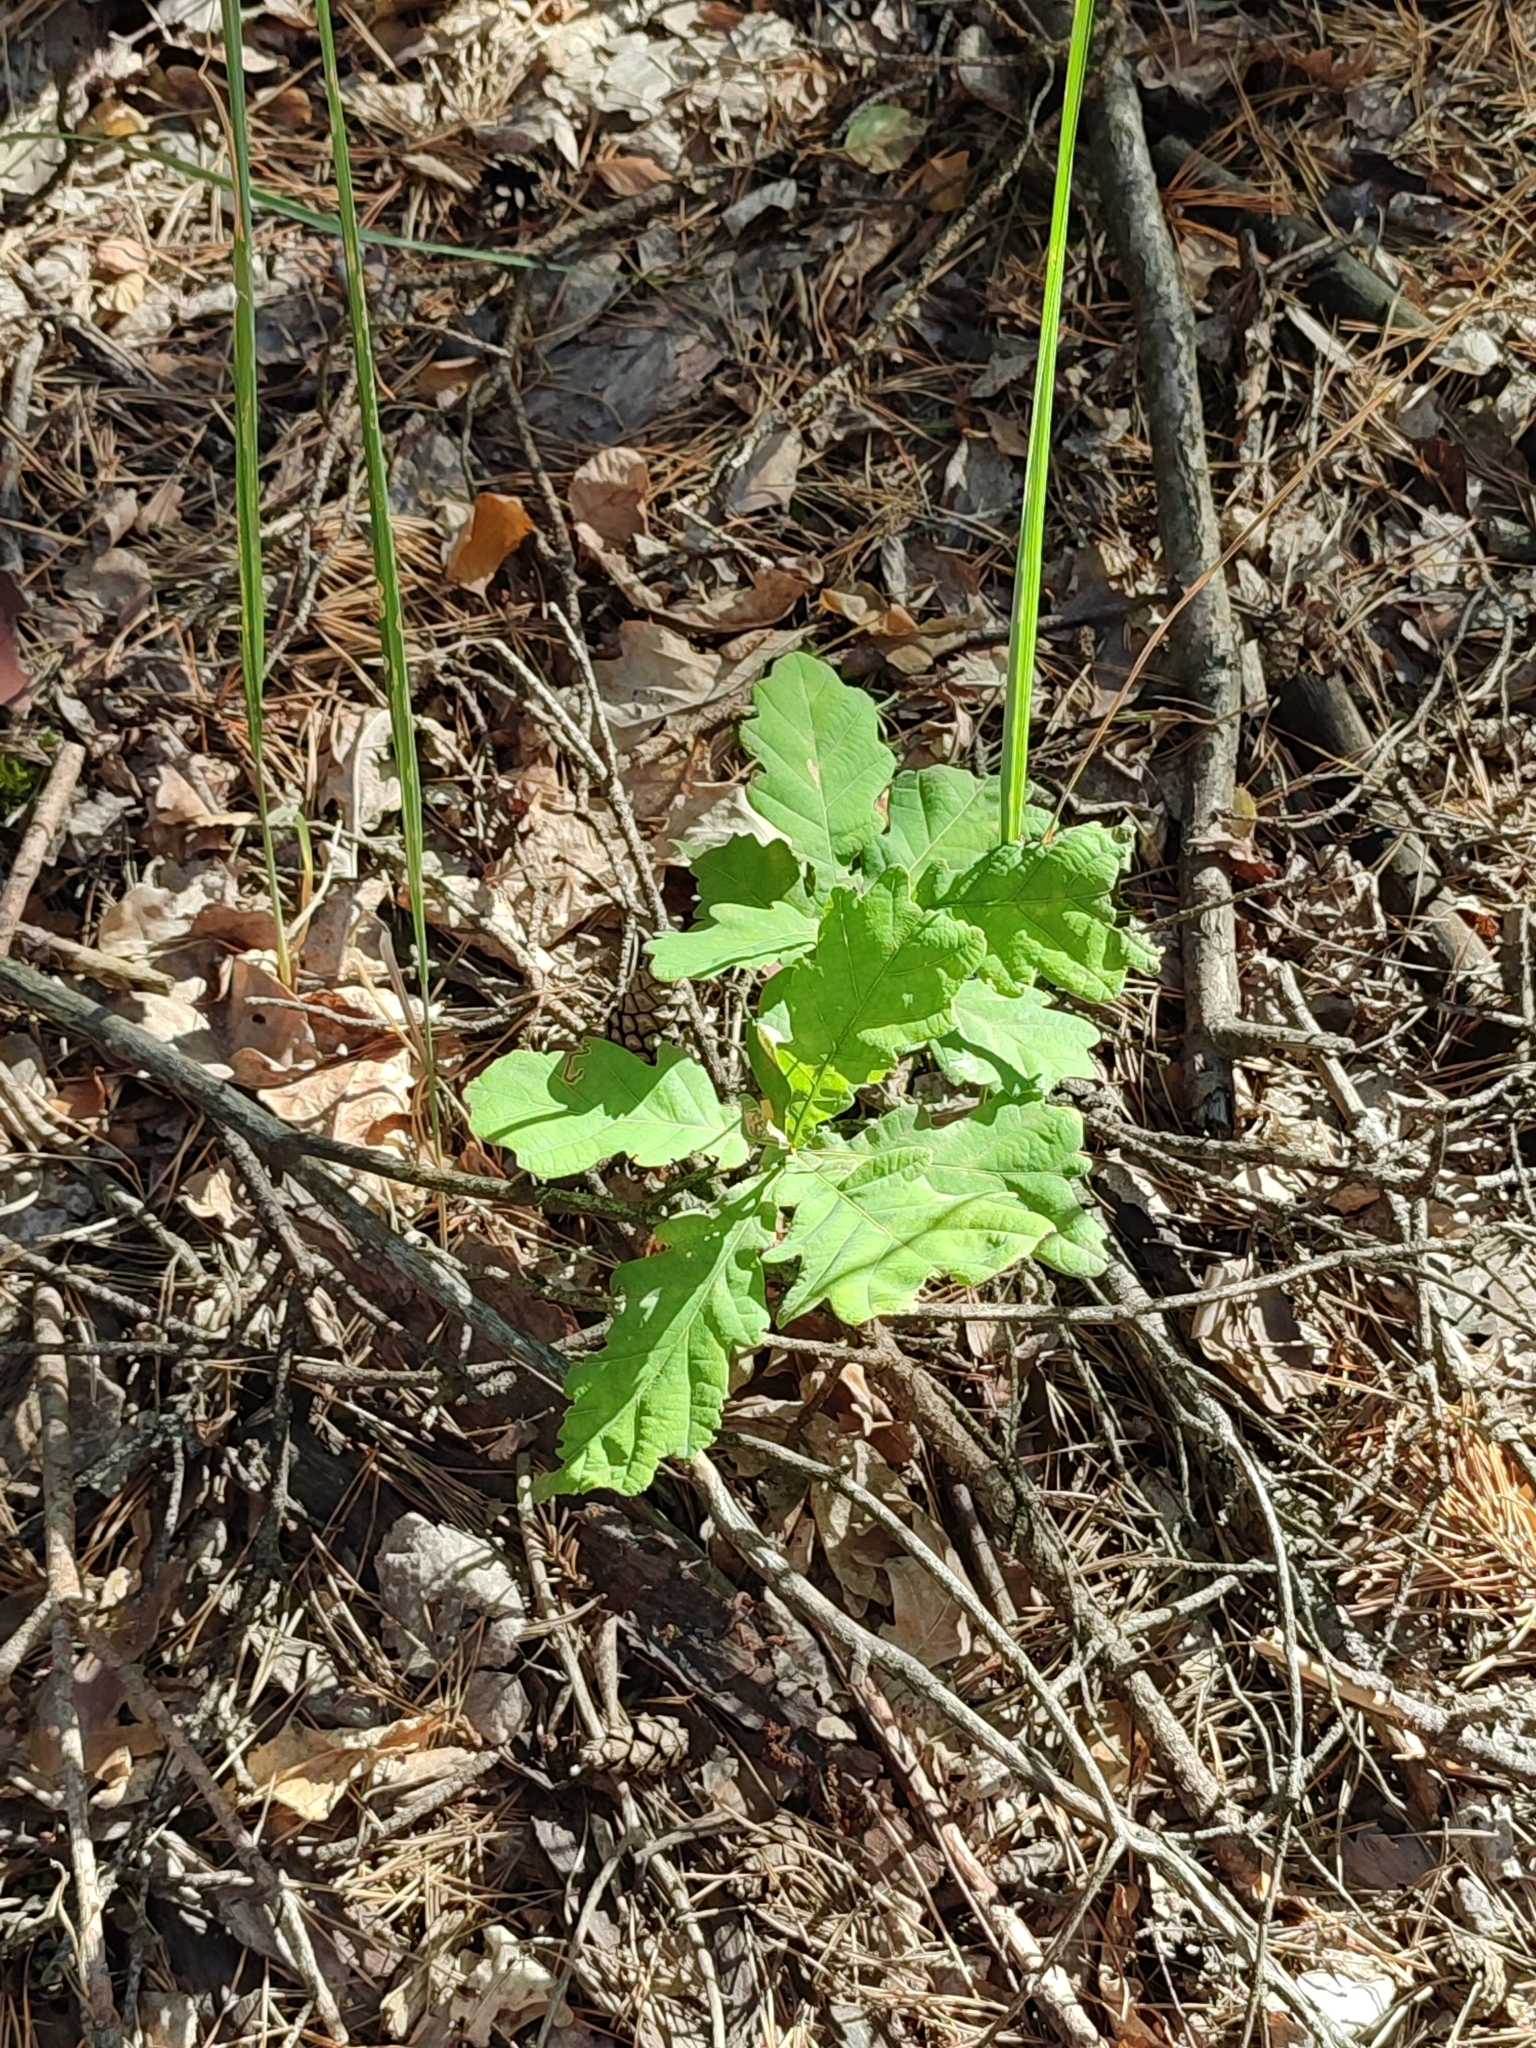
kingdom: Plantae
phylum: Tracheophyta
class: Magnoliopsida
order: Fagales
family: Fagaceae
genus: Quercus
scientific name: Quercus robur
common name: Pedunculate oak
